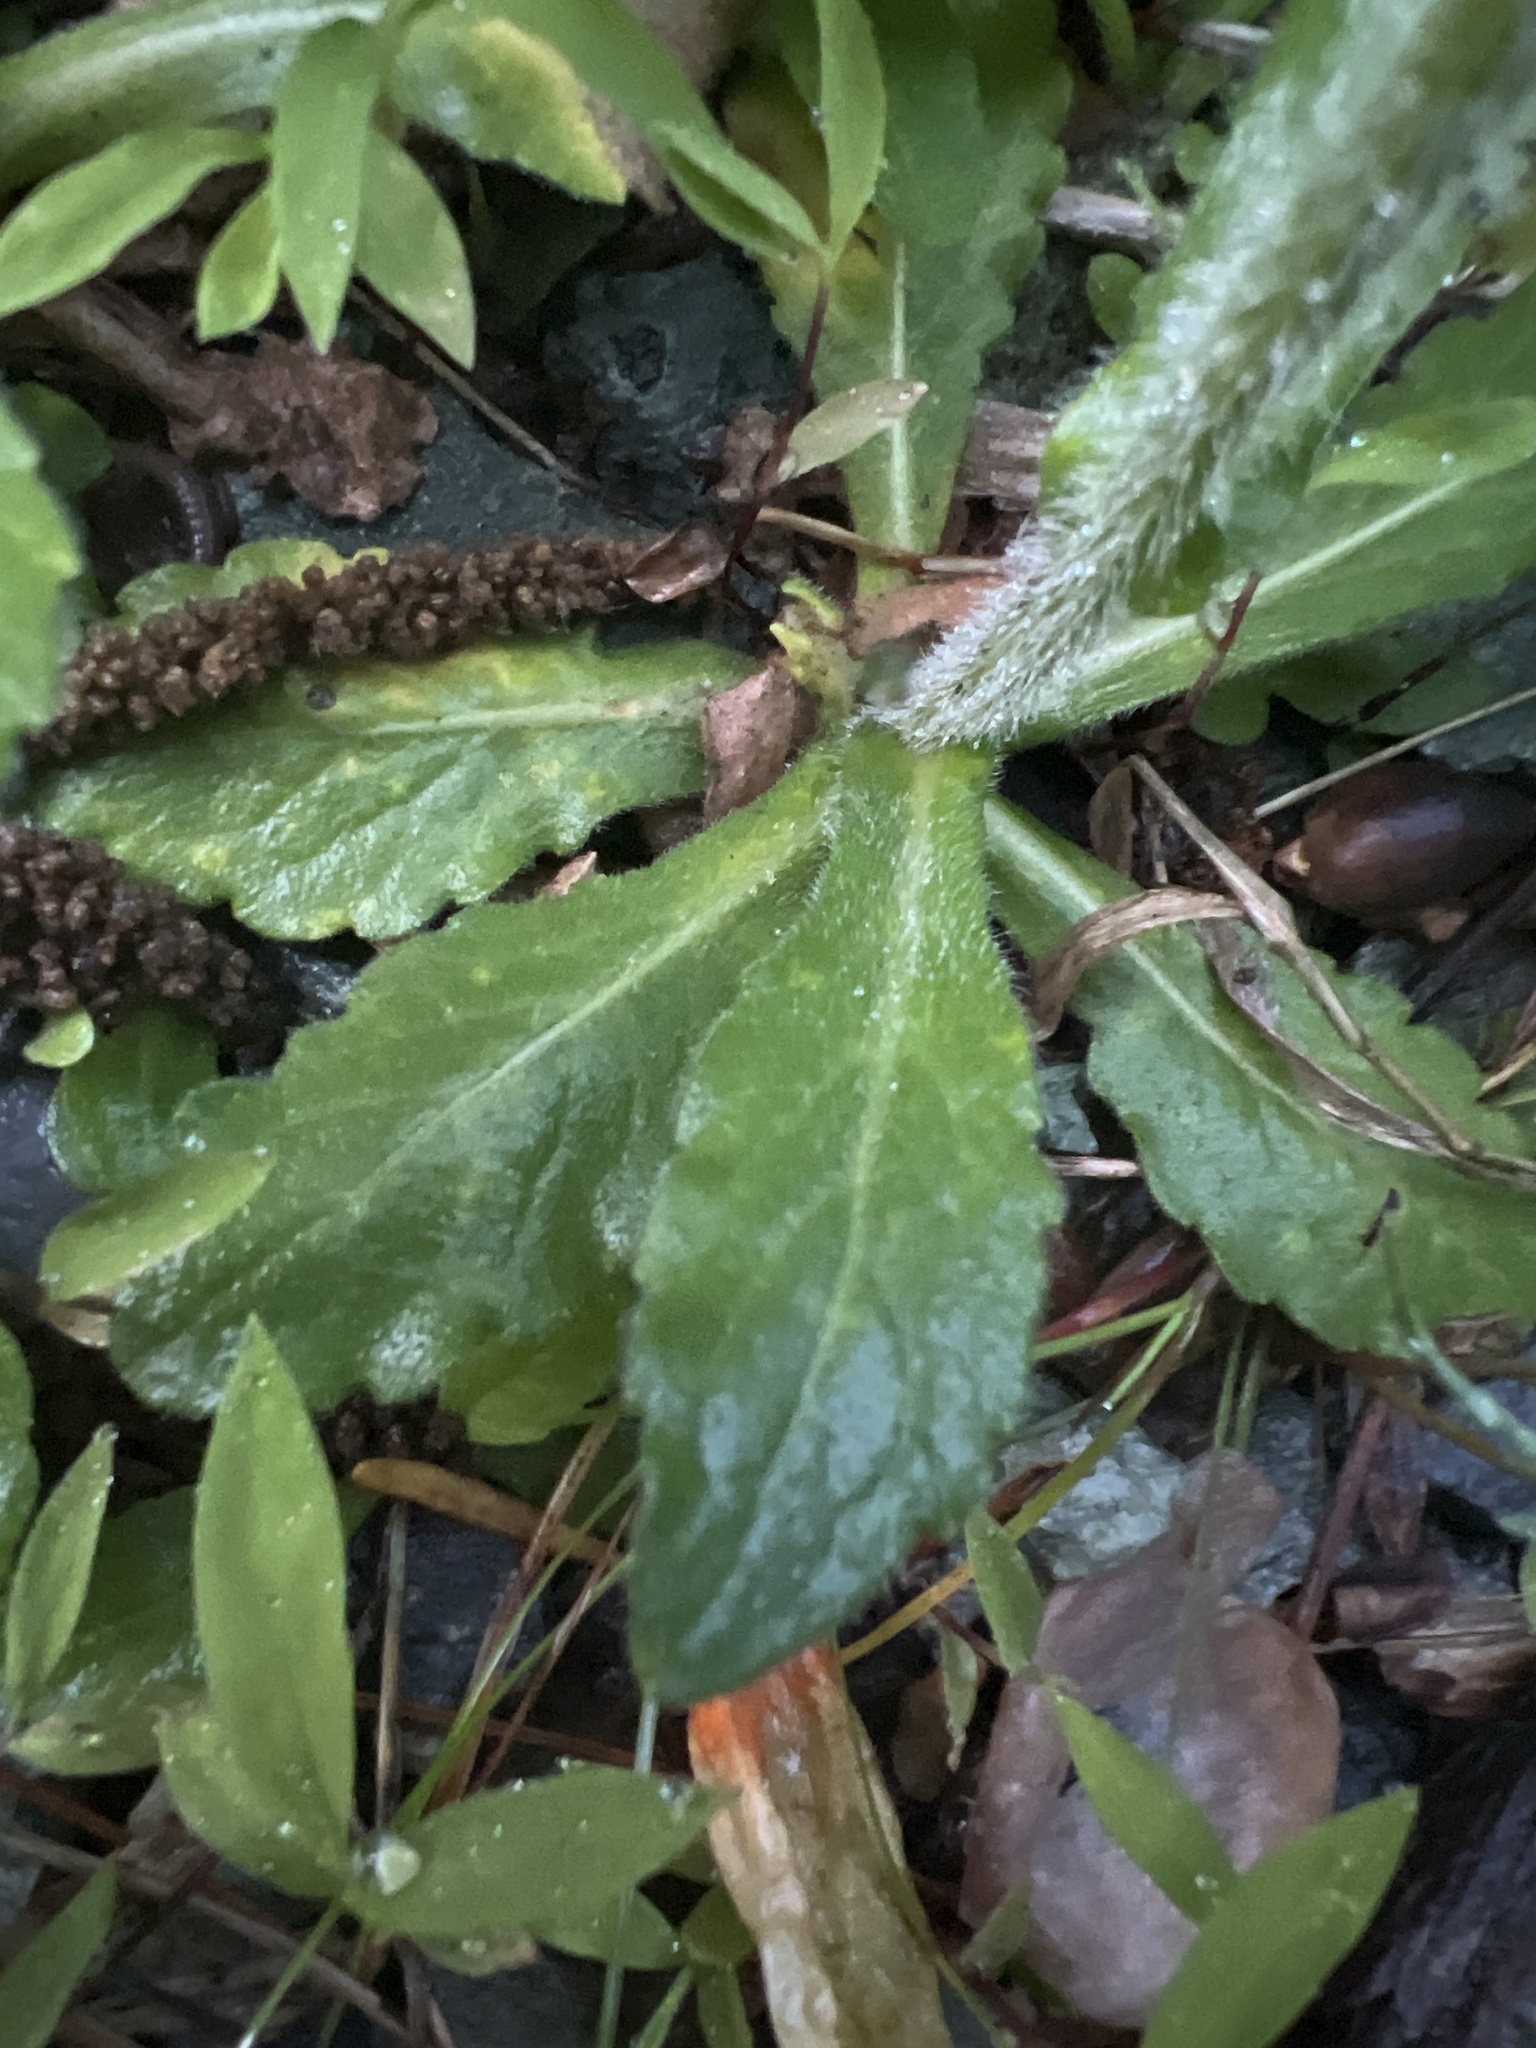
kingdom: Plantae
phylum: Tracheophyta
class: Magnoliopsida
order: Asterales
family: Asteraceae
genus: Erigeron
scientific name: Erigeron philadelphicus
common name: Robin's-plantain
